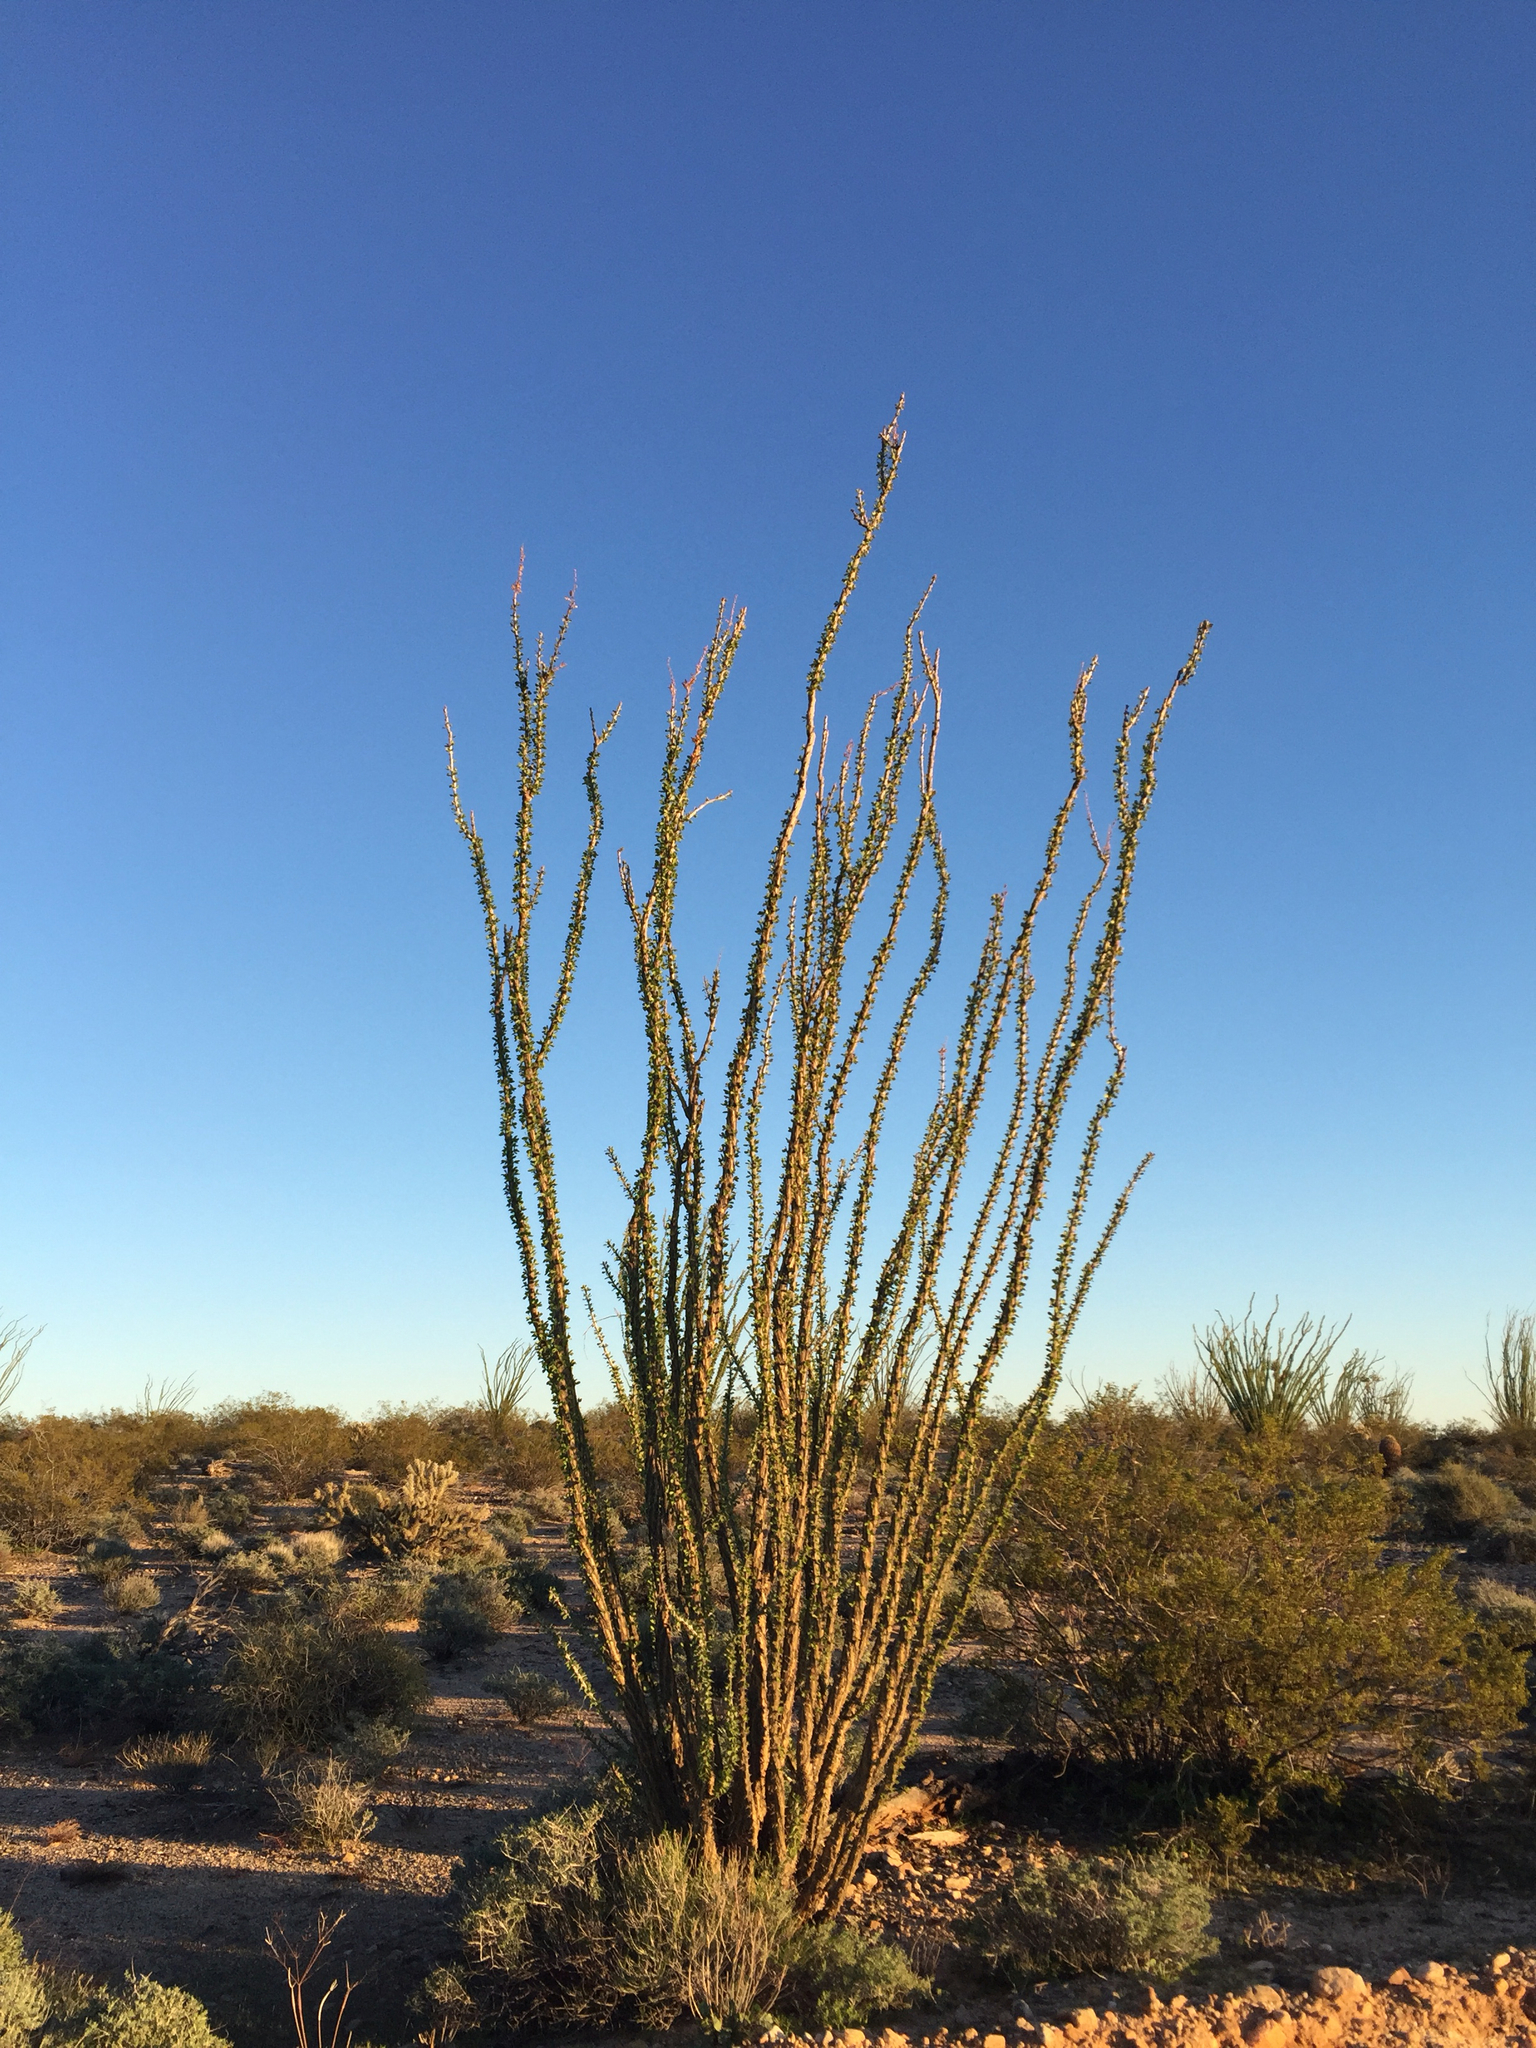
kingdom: Plantae
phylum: Tracheophyta
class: Magnoliopsida
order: Ericales
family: Fouquieriaceae
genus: Fouquieria
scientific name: Fouquieria splendens
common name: Vine-cactus
